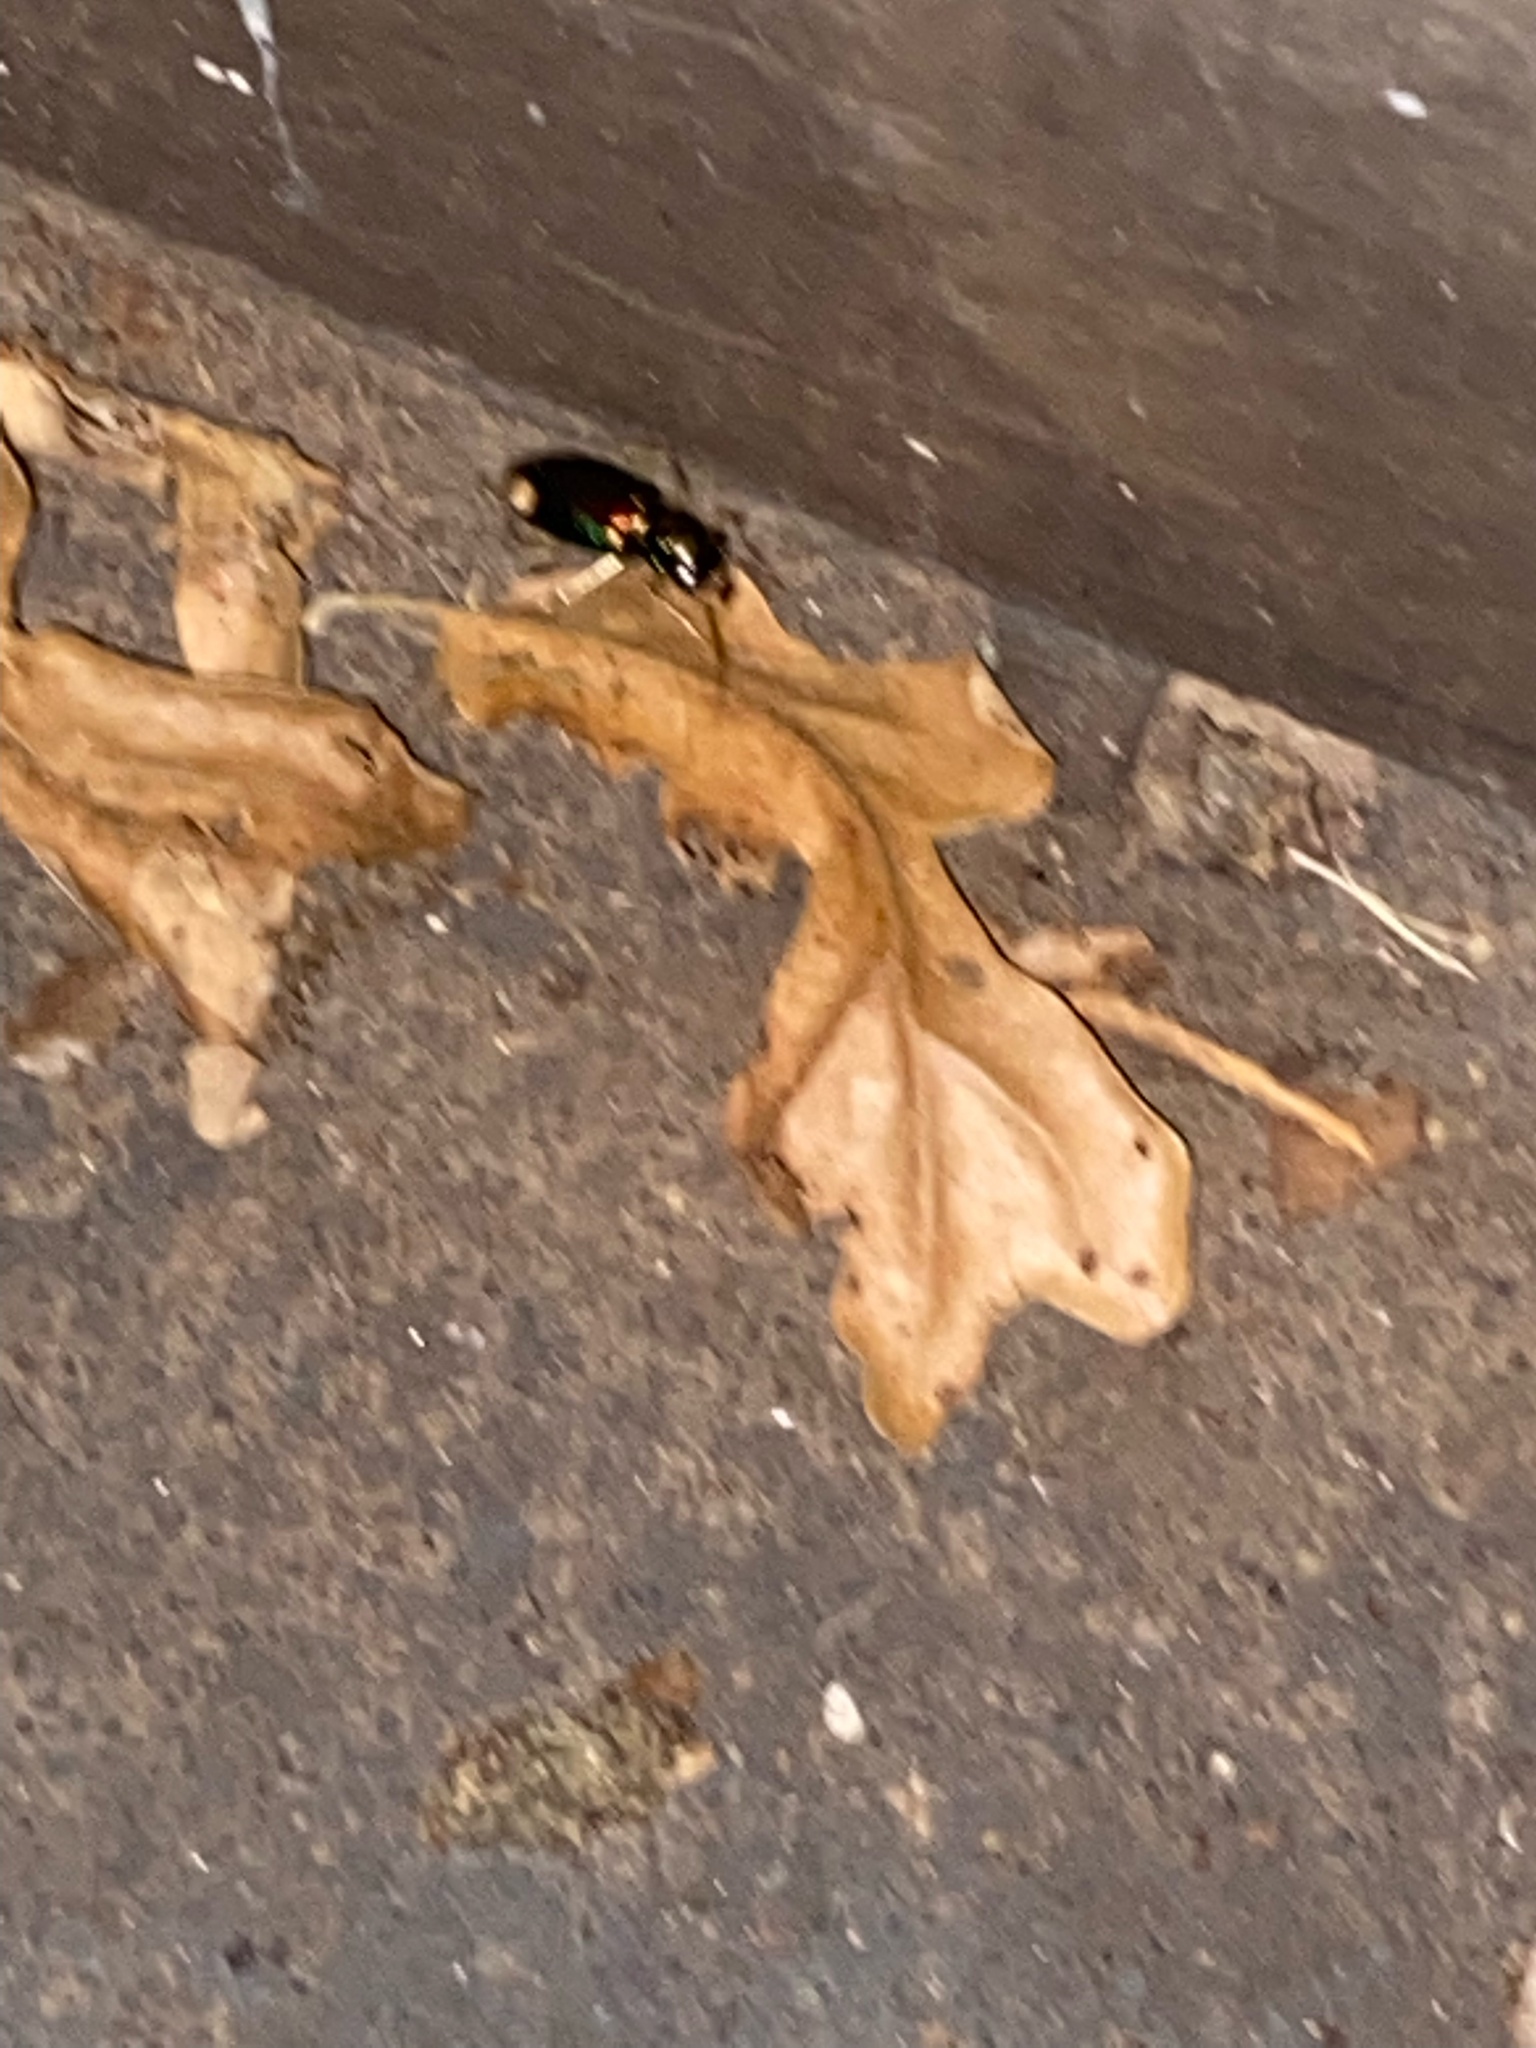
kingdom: Animalia
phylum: Arthropoda
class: Insecta
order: Coleoptera
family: Carabidae
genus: Tetracha
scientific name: Tetracha carolina
